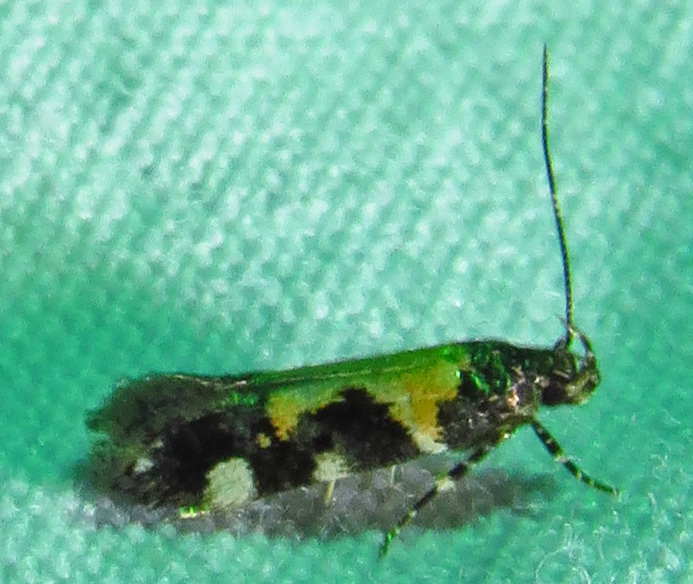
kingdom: Animalia
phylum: Arthropoda
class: Insecta
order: Lepidoptera
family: Gelechiidae
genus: Stegasta
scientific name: Stegasta bosqueella
